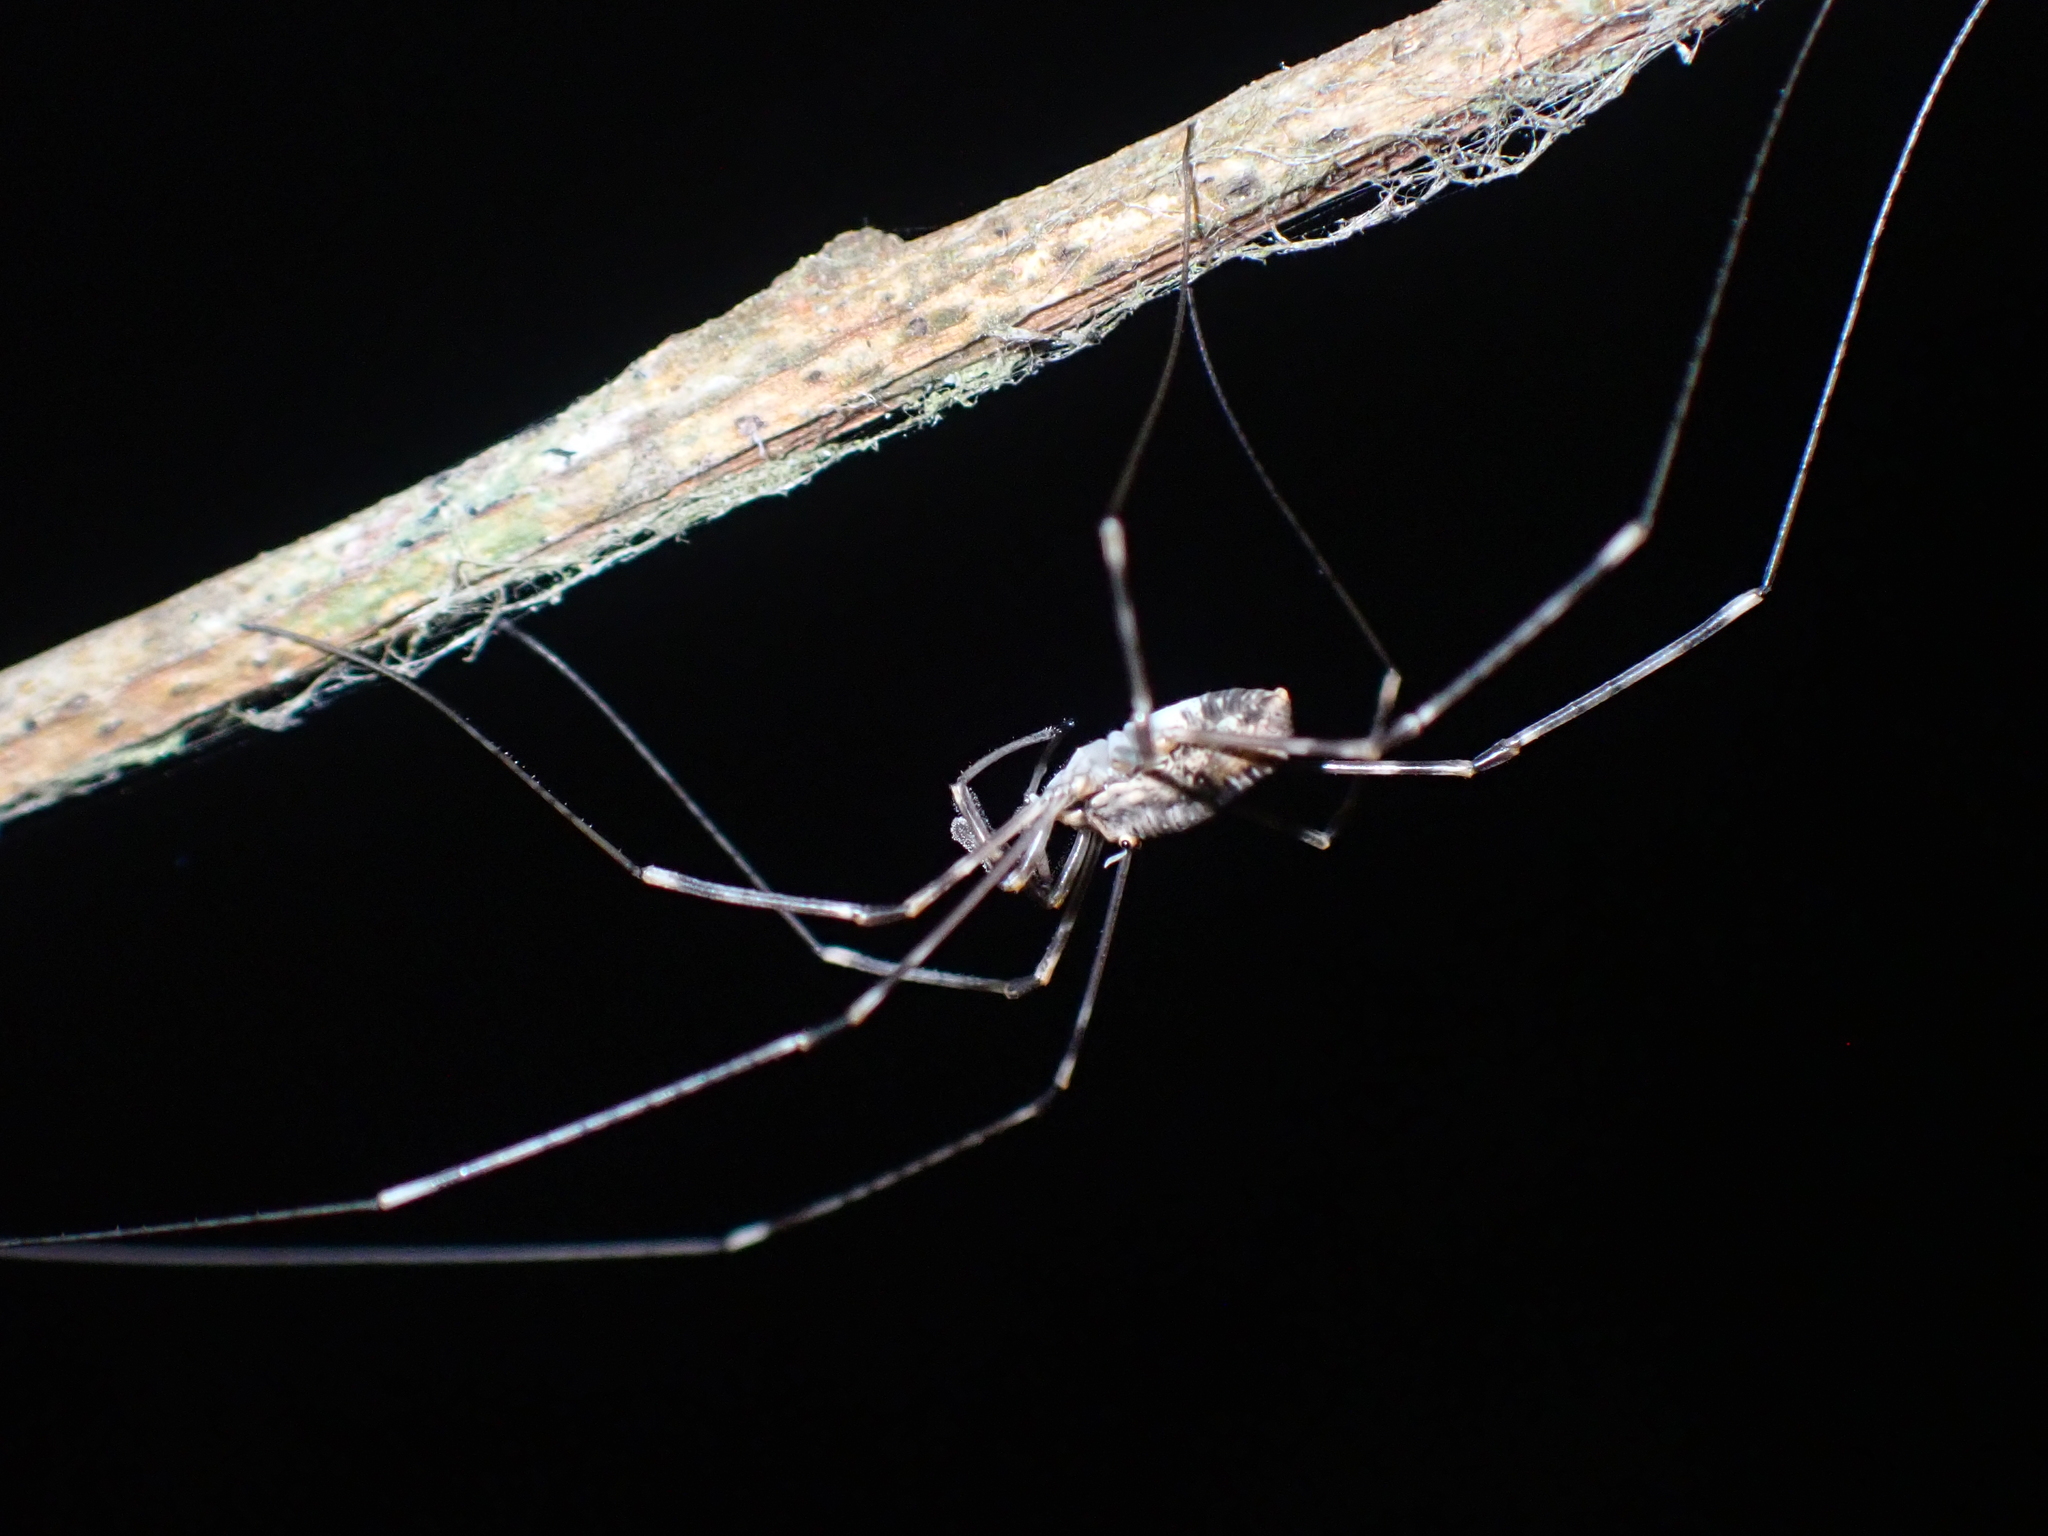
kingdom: Animalia
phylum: Arthropoda
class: Arachnida
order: Opiliones
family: Phalangiidae
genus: Dicranopalpus
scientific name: Dicranopalpus ramosus
